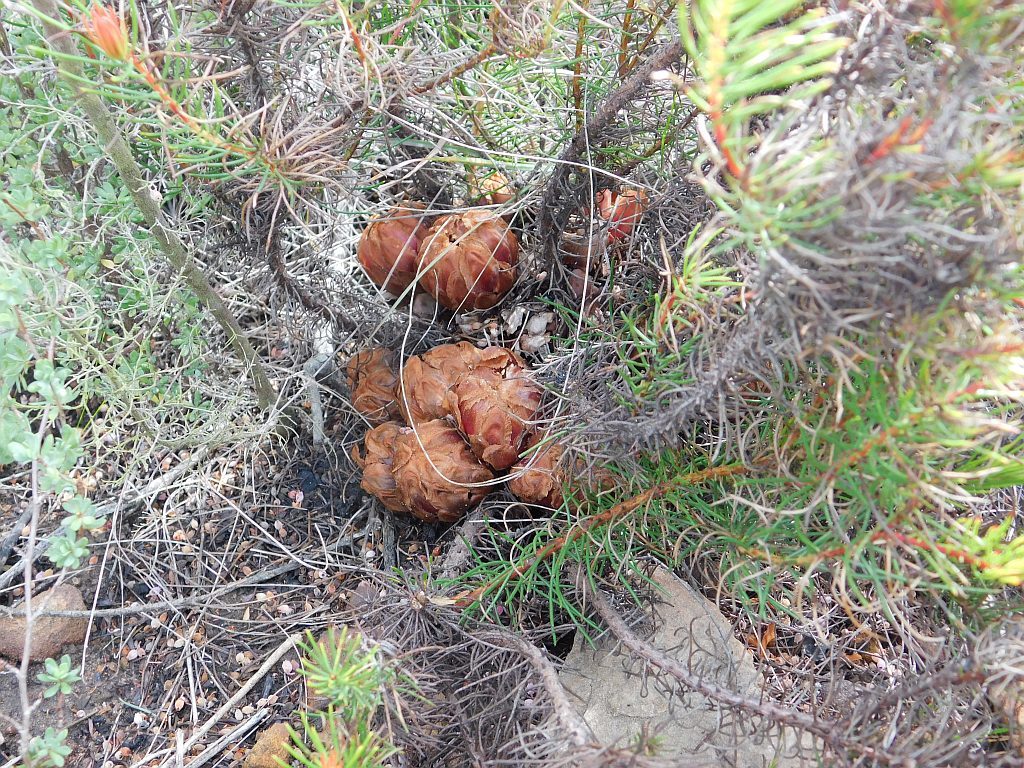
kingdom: Plantae
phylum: Tracheophyta
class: Magnoliopsida
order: Proteales
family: Proteaceae
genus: Protea
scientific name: Protea subulifolia
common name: Awl-leaf sugarbush
